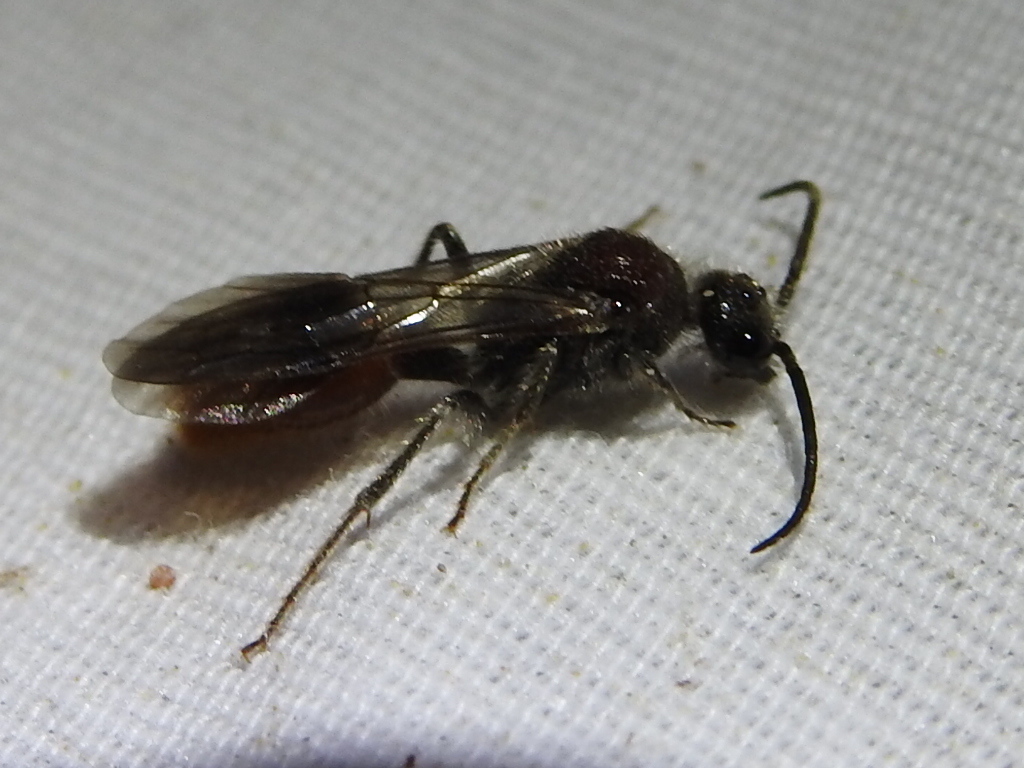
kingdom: Animalia
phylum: Arthropoda
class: Insecta
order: Hymenoptera
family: Mutillidae
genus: Sphaeropthalma
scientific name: Sphaeropthalma imperialis
